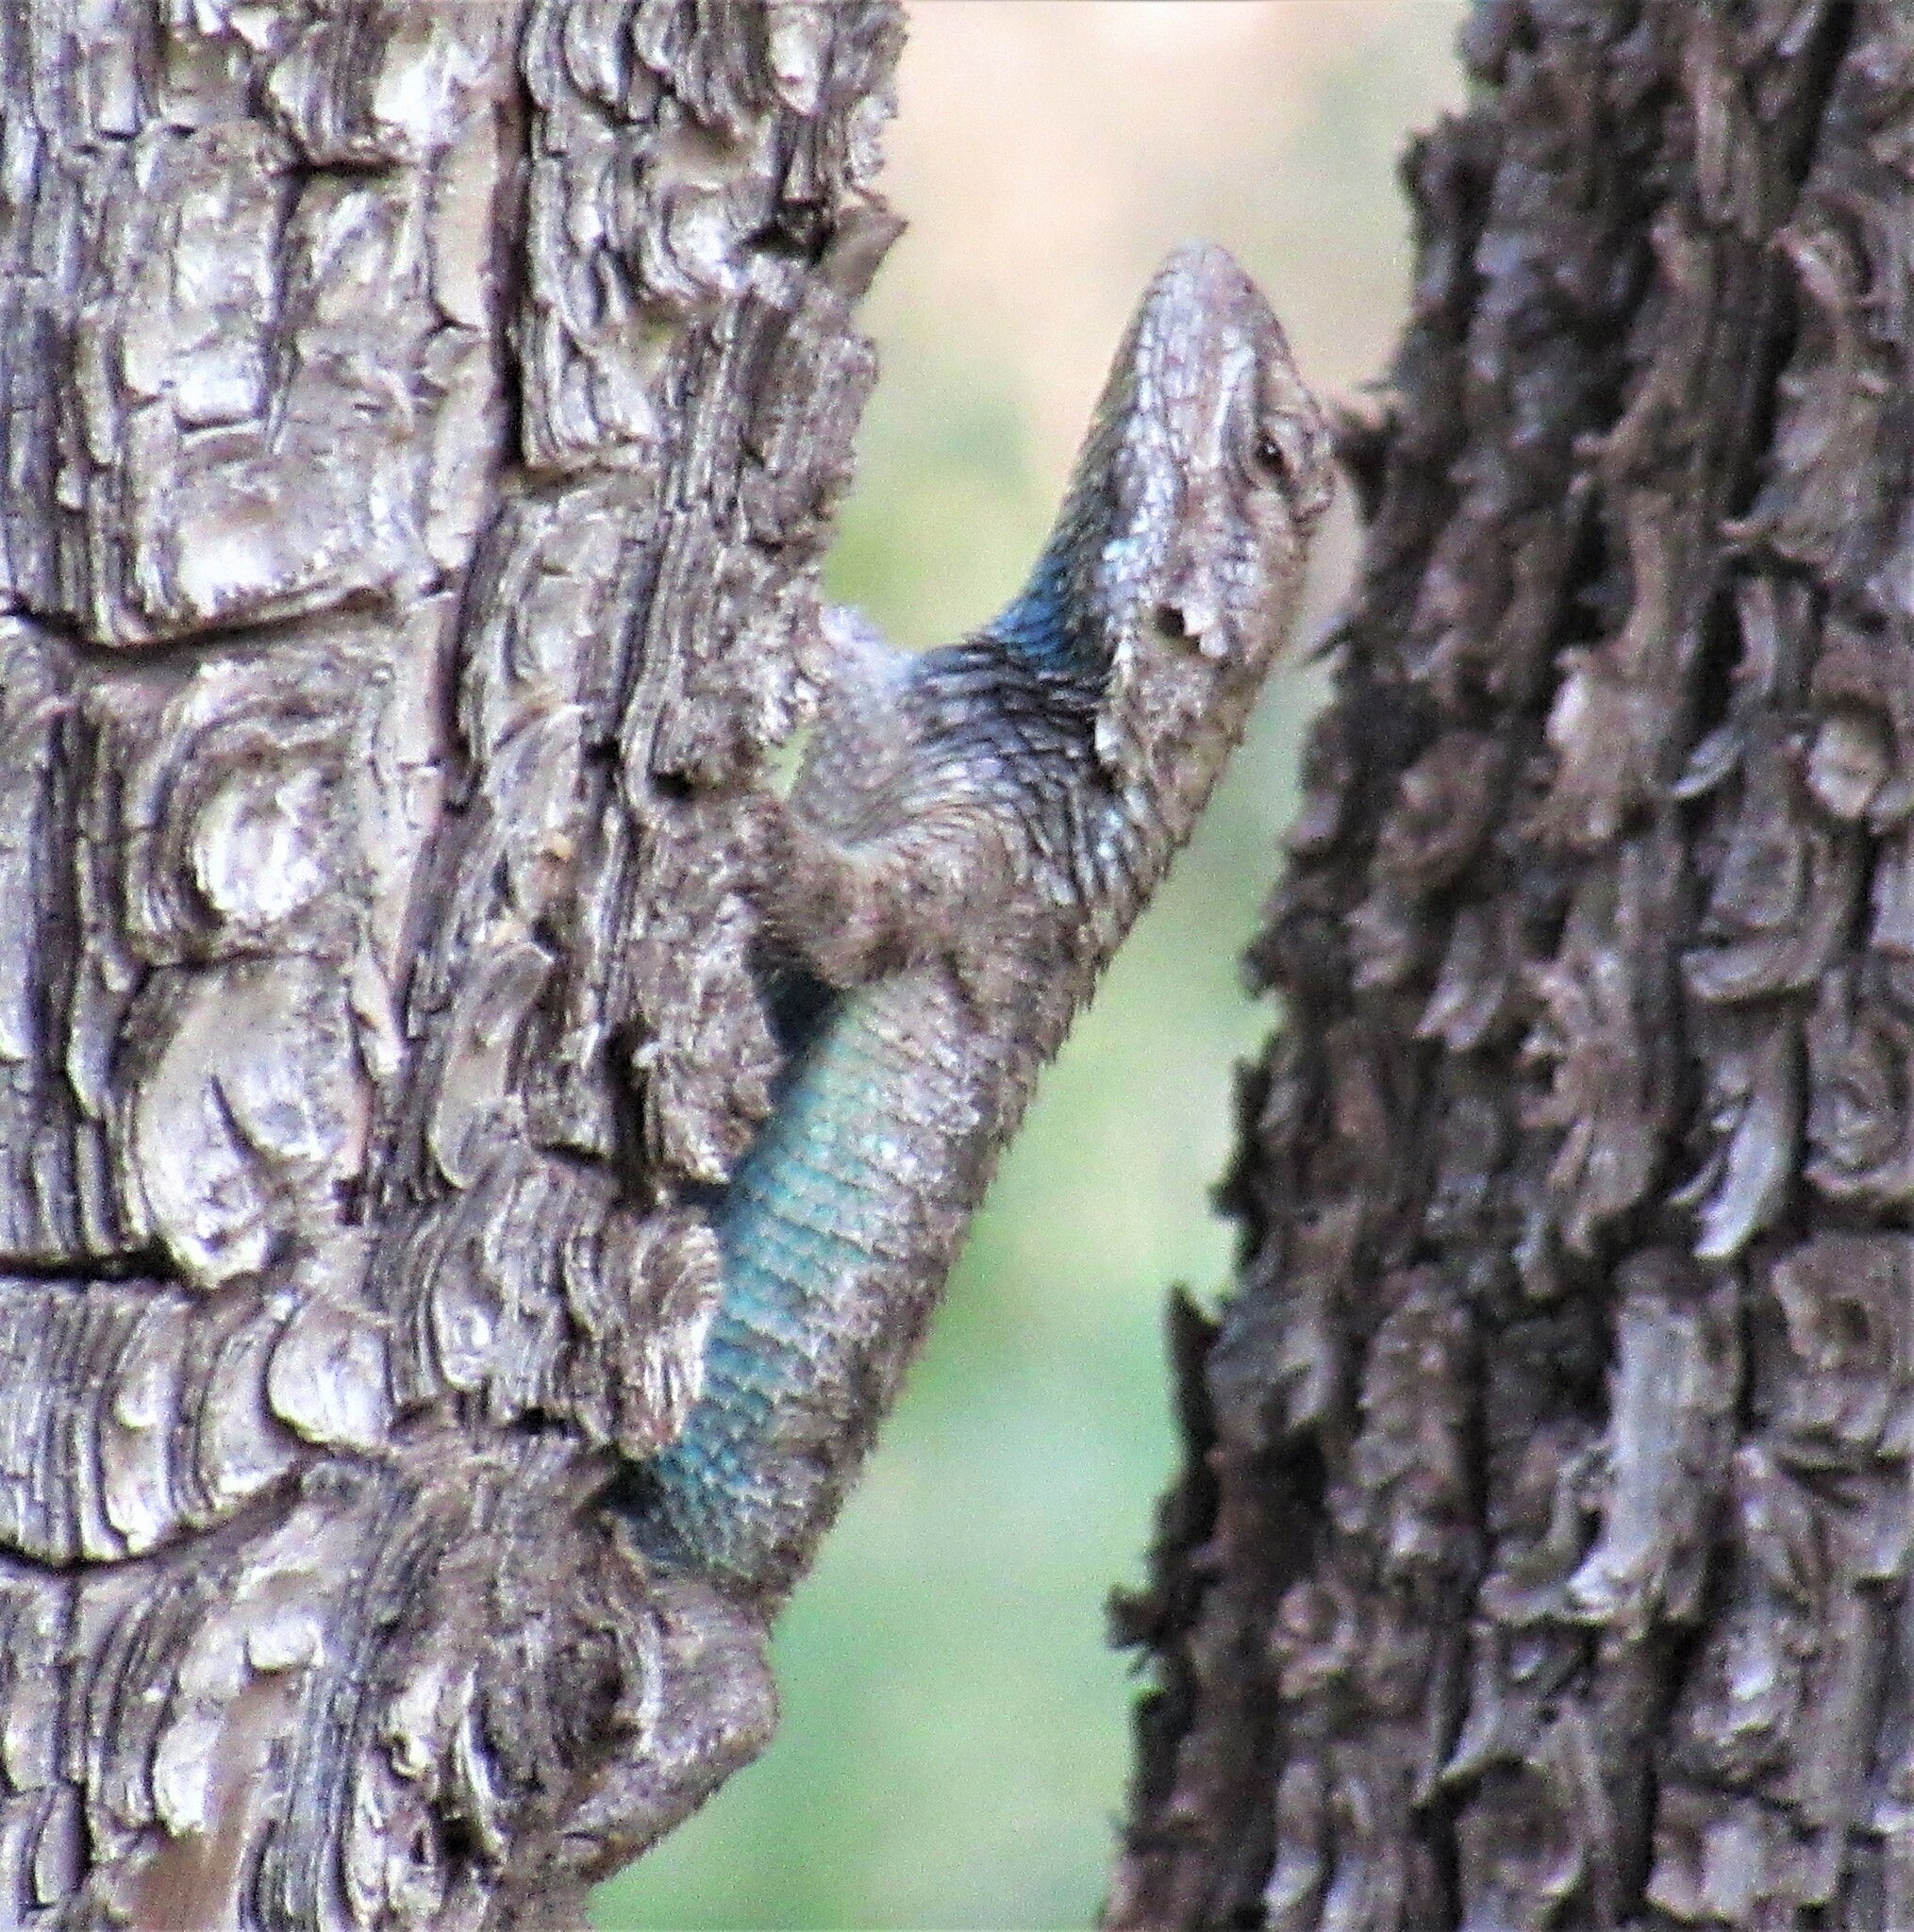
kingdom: Animalia
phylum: Chordata
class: Squamata
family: Phrynosomatidae
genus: Sceloporus
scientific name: Sceloporus clarkii
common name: Clark's spiny lizard
